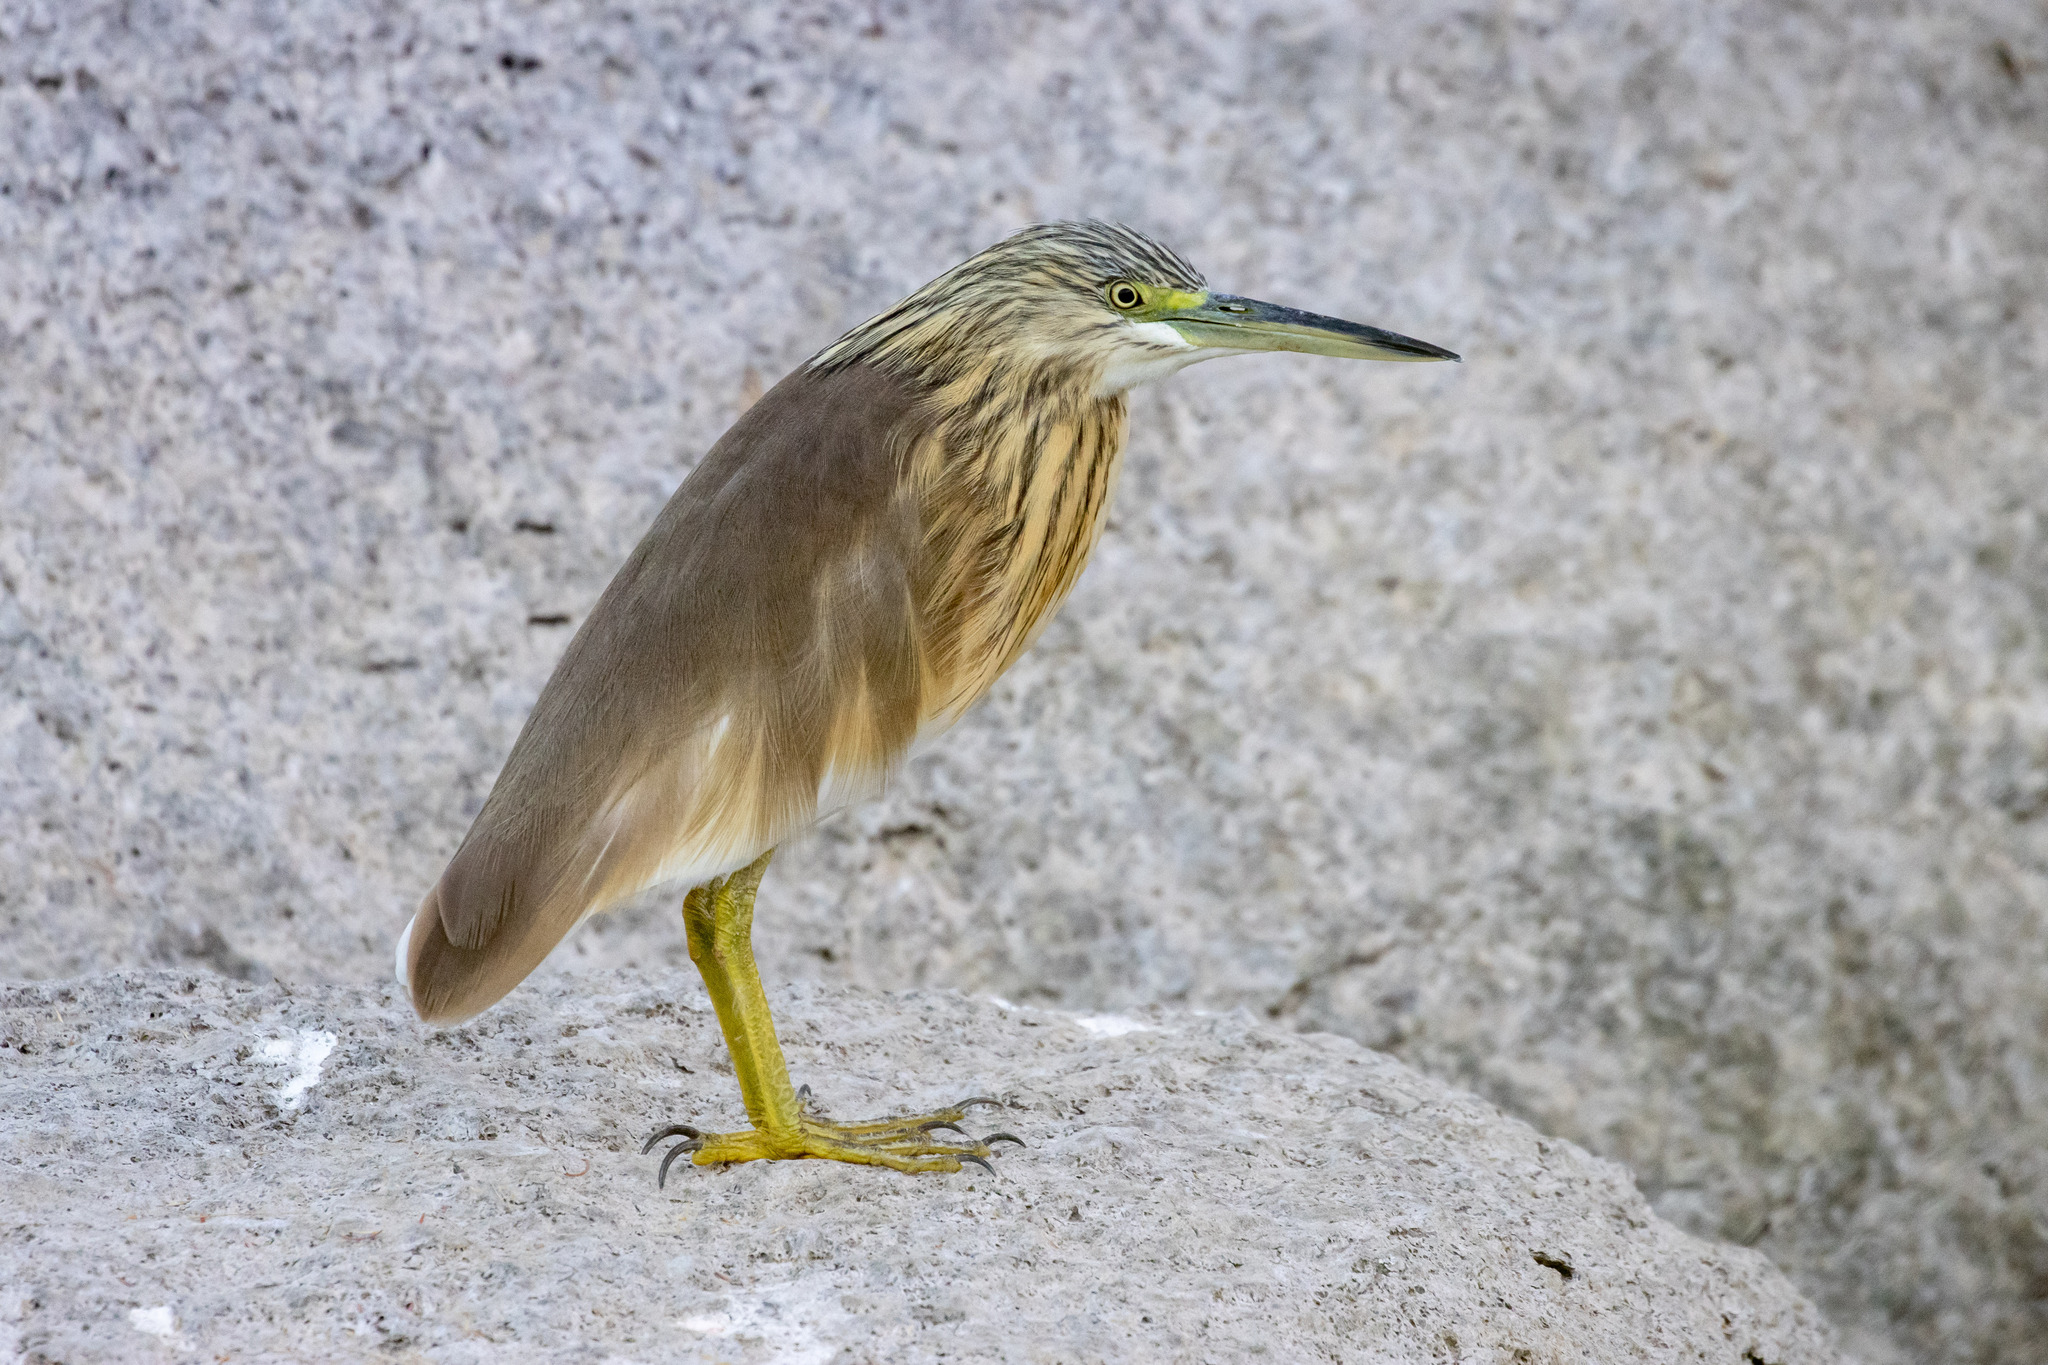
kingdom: Animalia
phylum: Chordata
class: Aves
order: Pelecaniformes
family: Ardeidae
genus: Ardeola
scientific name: Ardeola ralloides
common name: Squacco heron
